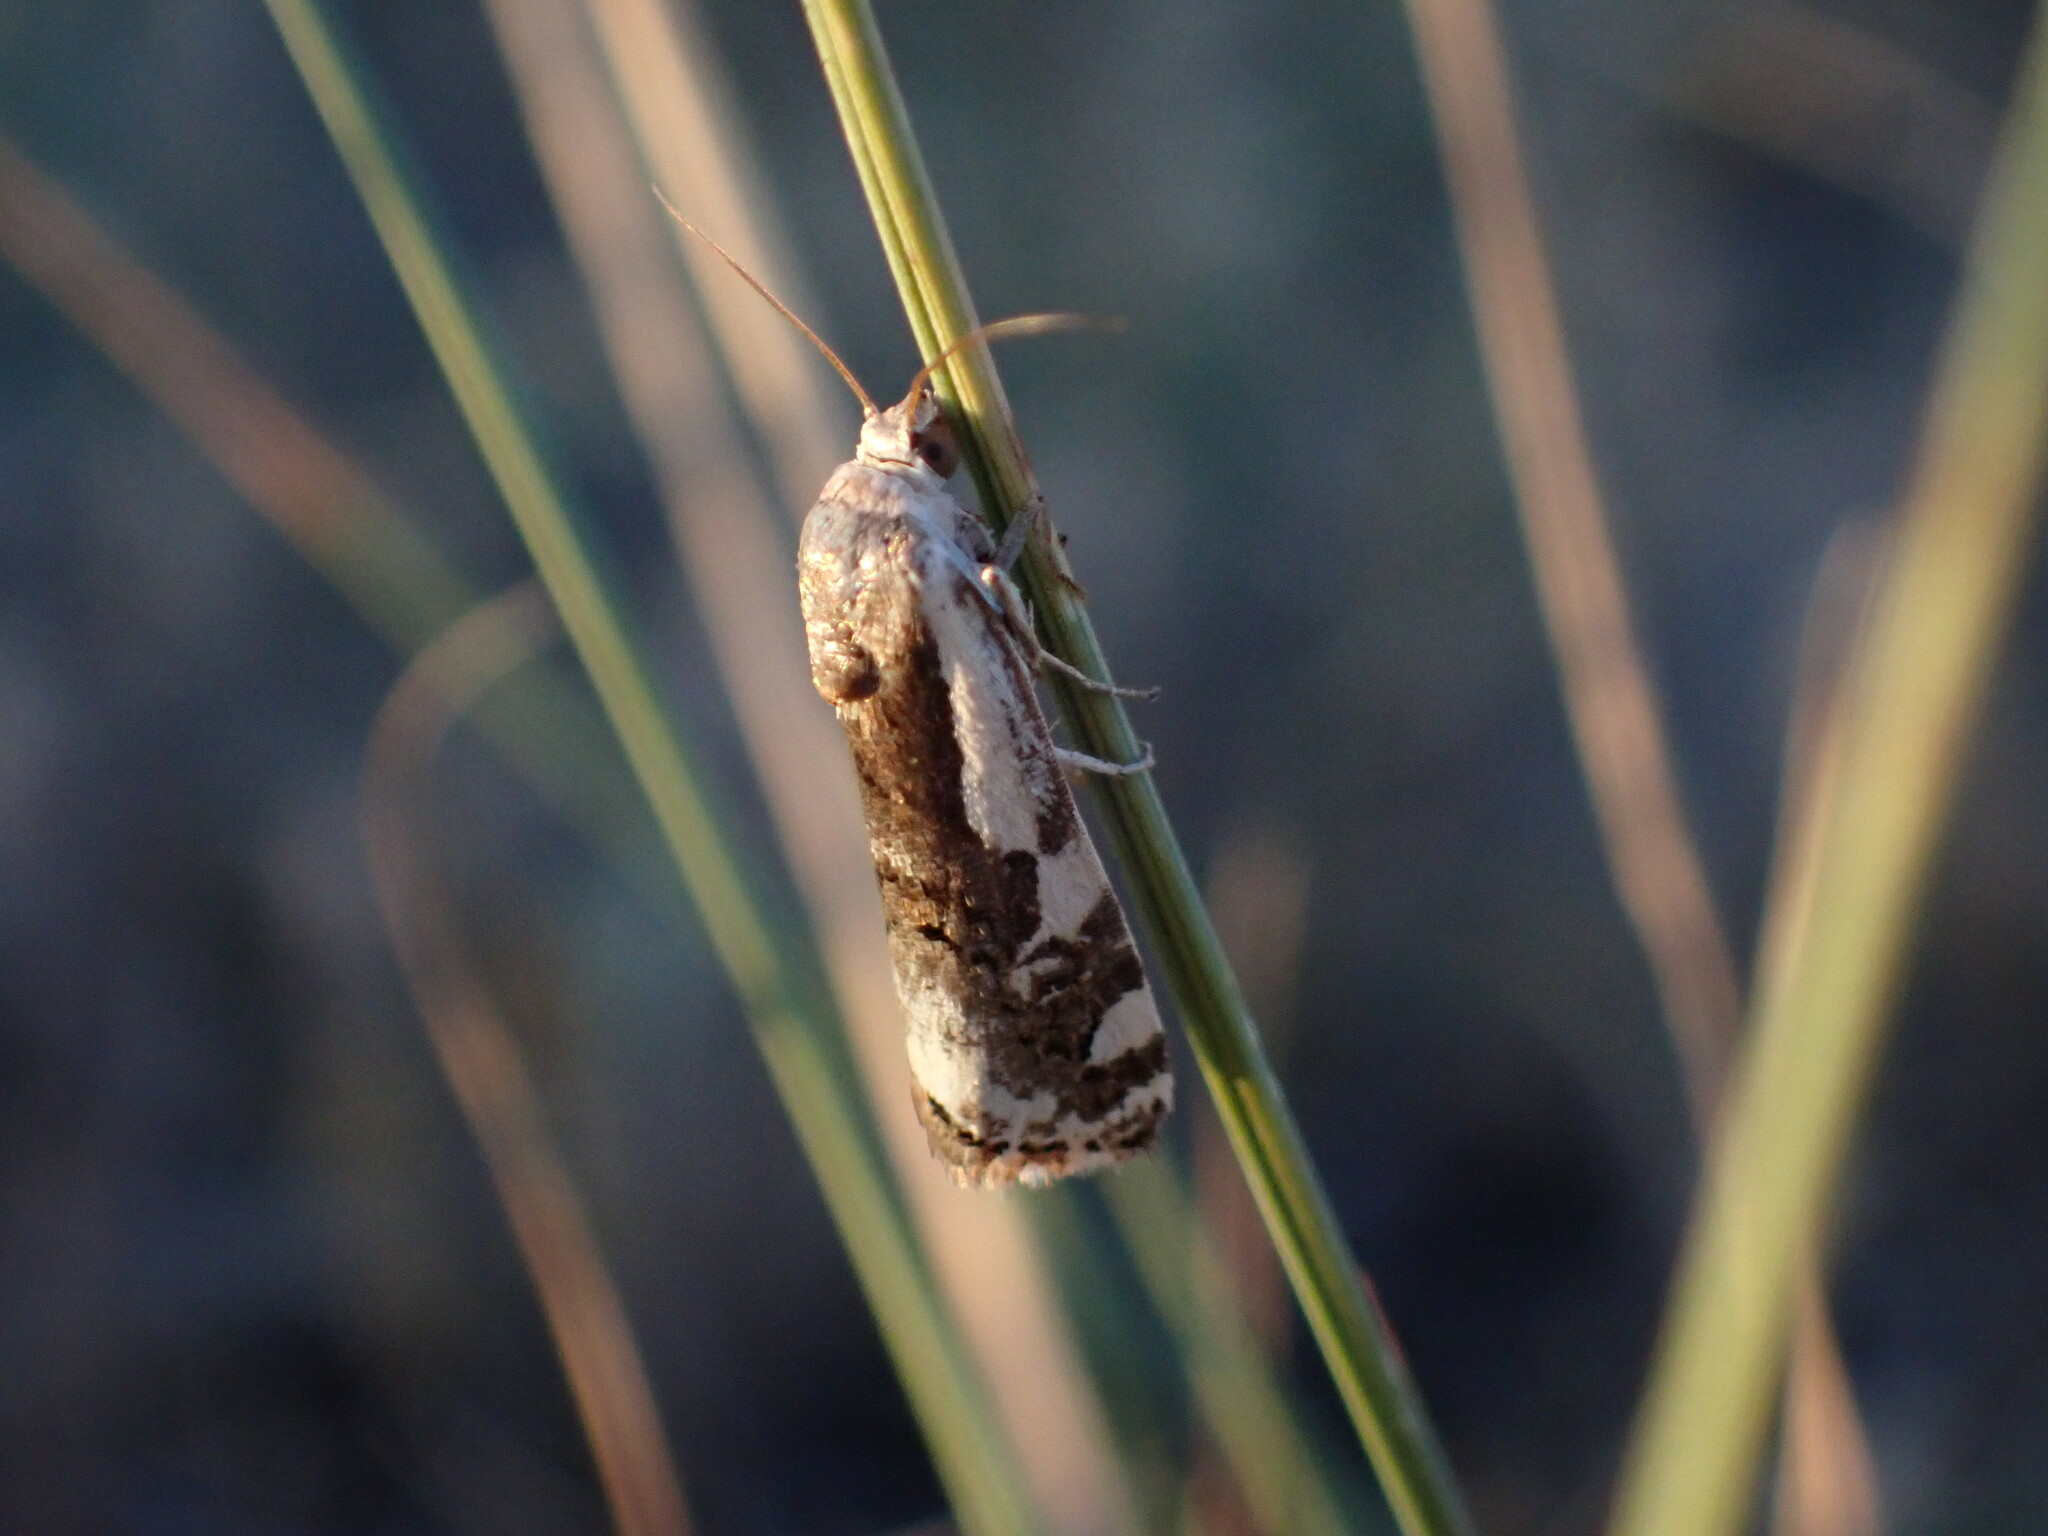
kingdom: Animalia
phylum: Arthropoda
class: Insecta
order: Lepidoptera
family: Noctuidae
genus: Acontia
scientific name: Acontia Tarache augustipennis
